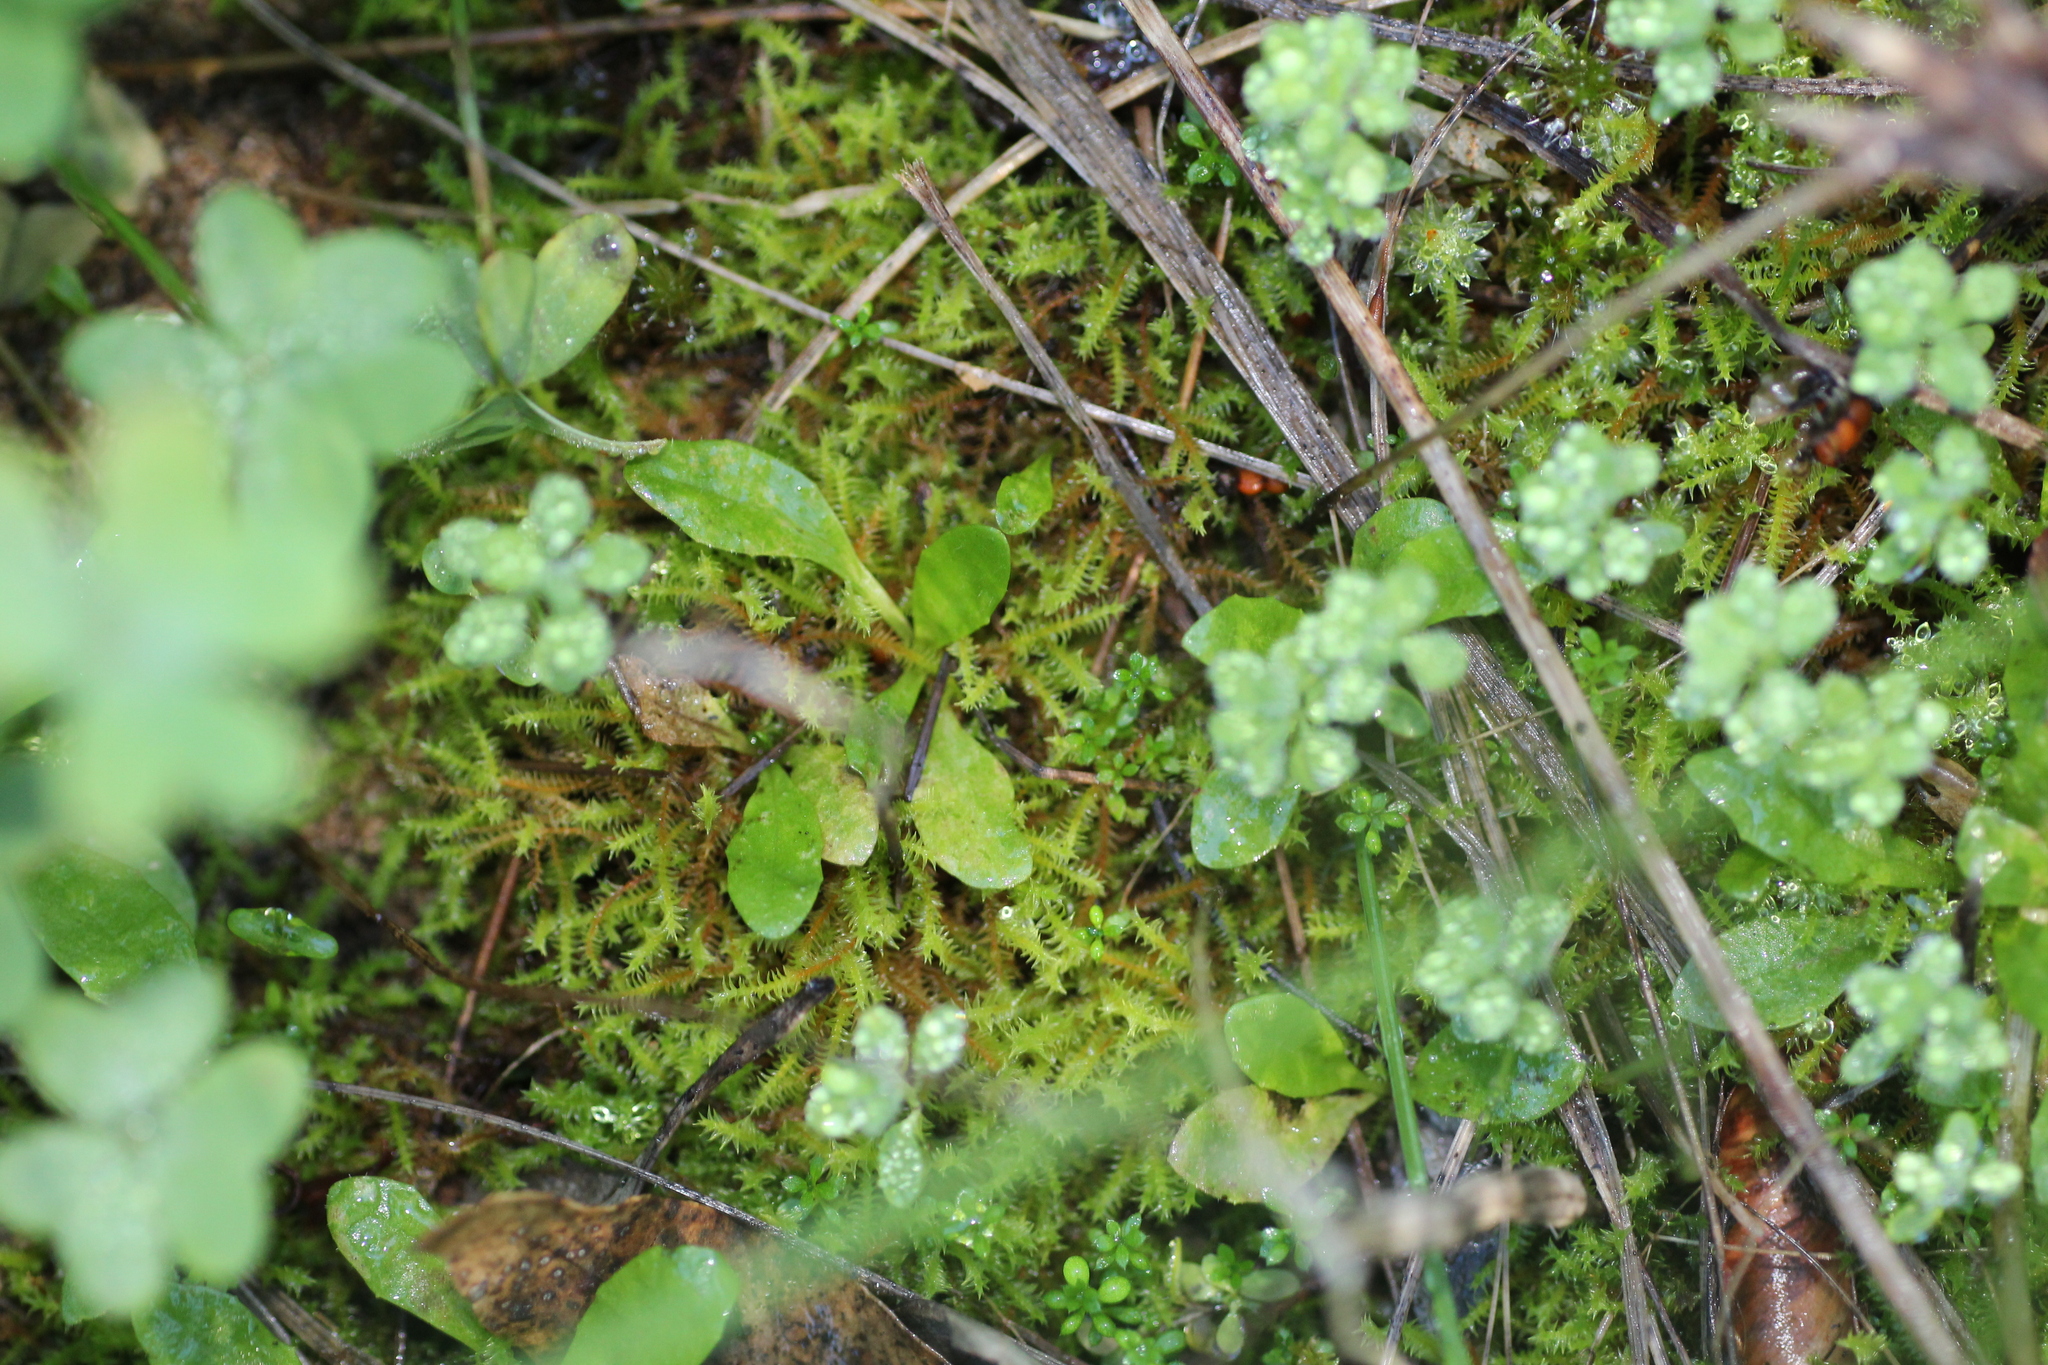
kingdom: Plantae
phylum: Bryophyta
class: Bryopsida
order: Pottiales
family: Pottiaceae
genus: Triquetrella
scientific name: Triquetrella papillata
